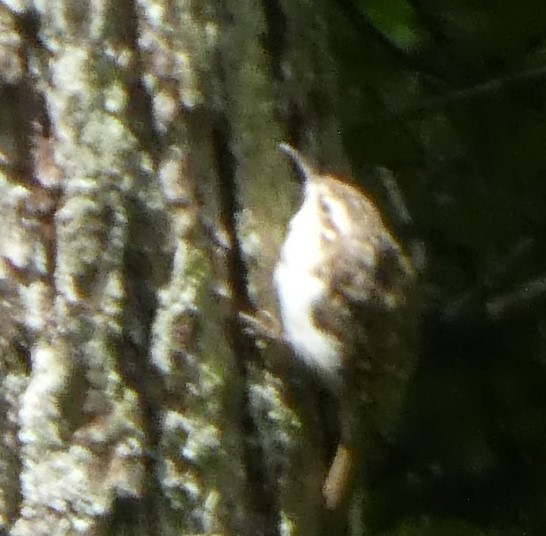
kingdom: Animalia
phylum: Chordata
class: Aves
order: Passeriformes
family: Certhiidae
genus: Certhia
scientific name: Certhia familiaris
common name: Eurasian treecreeper
